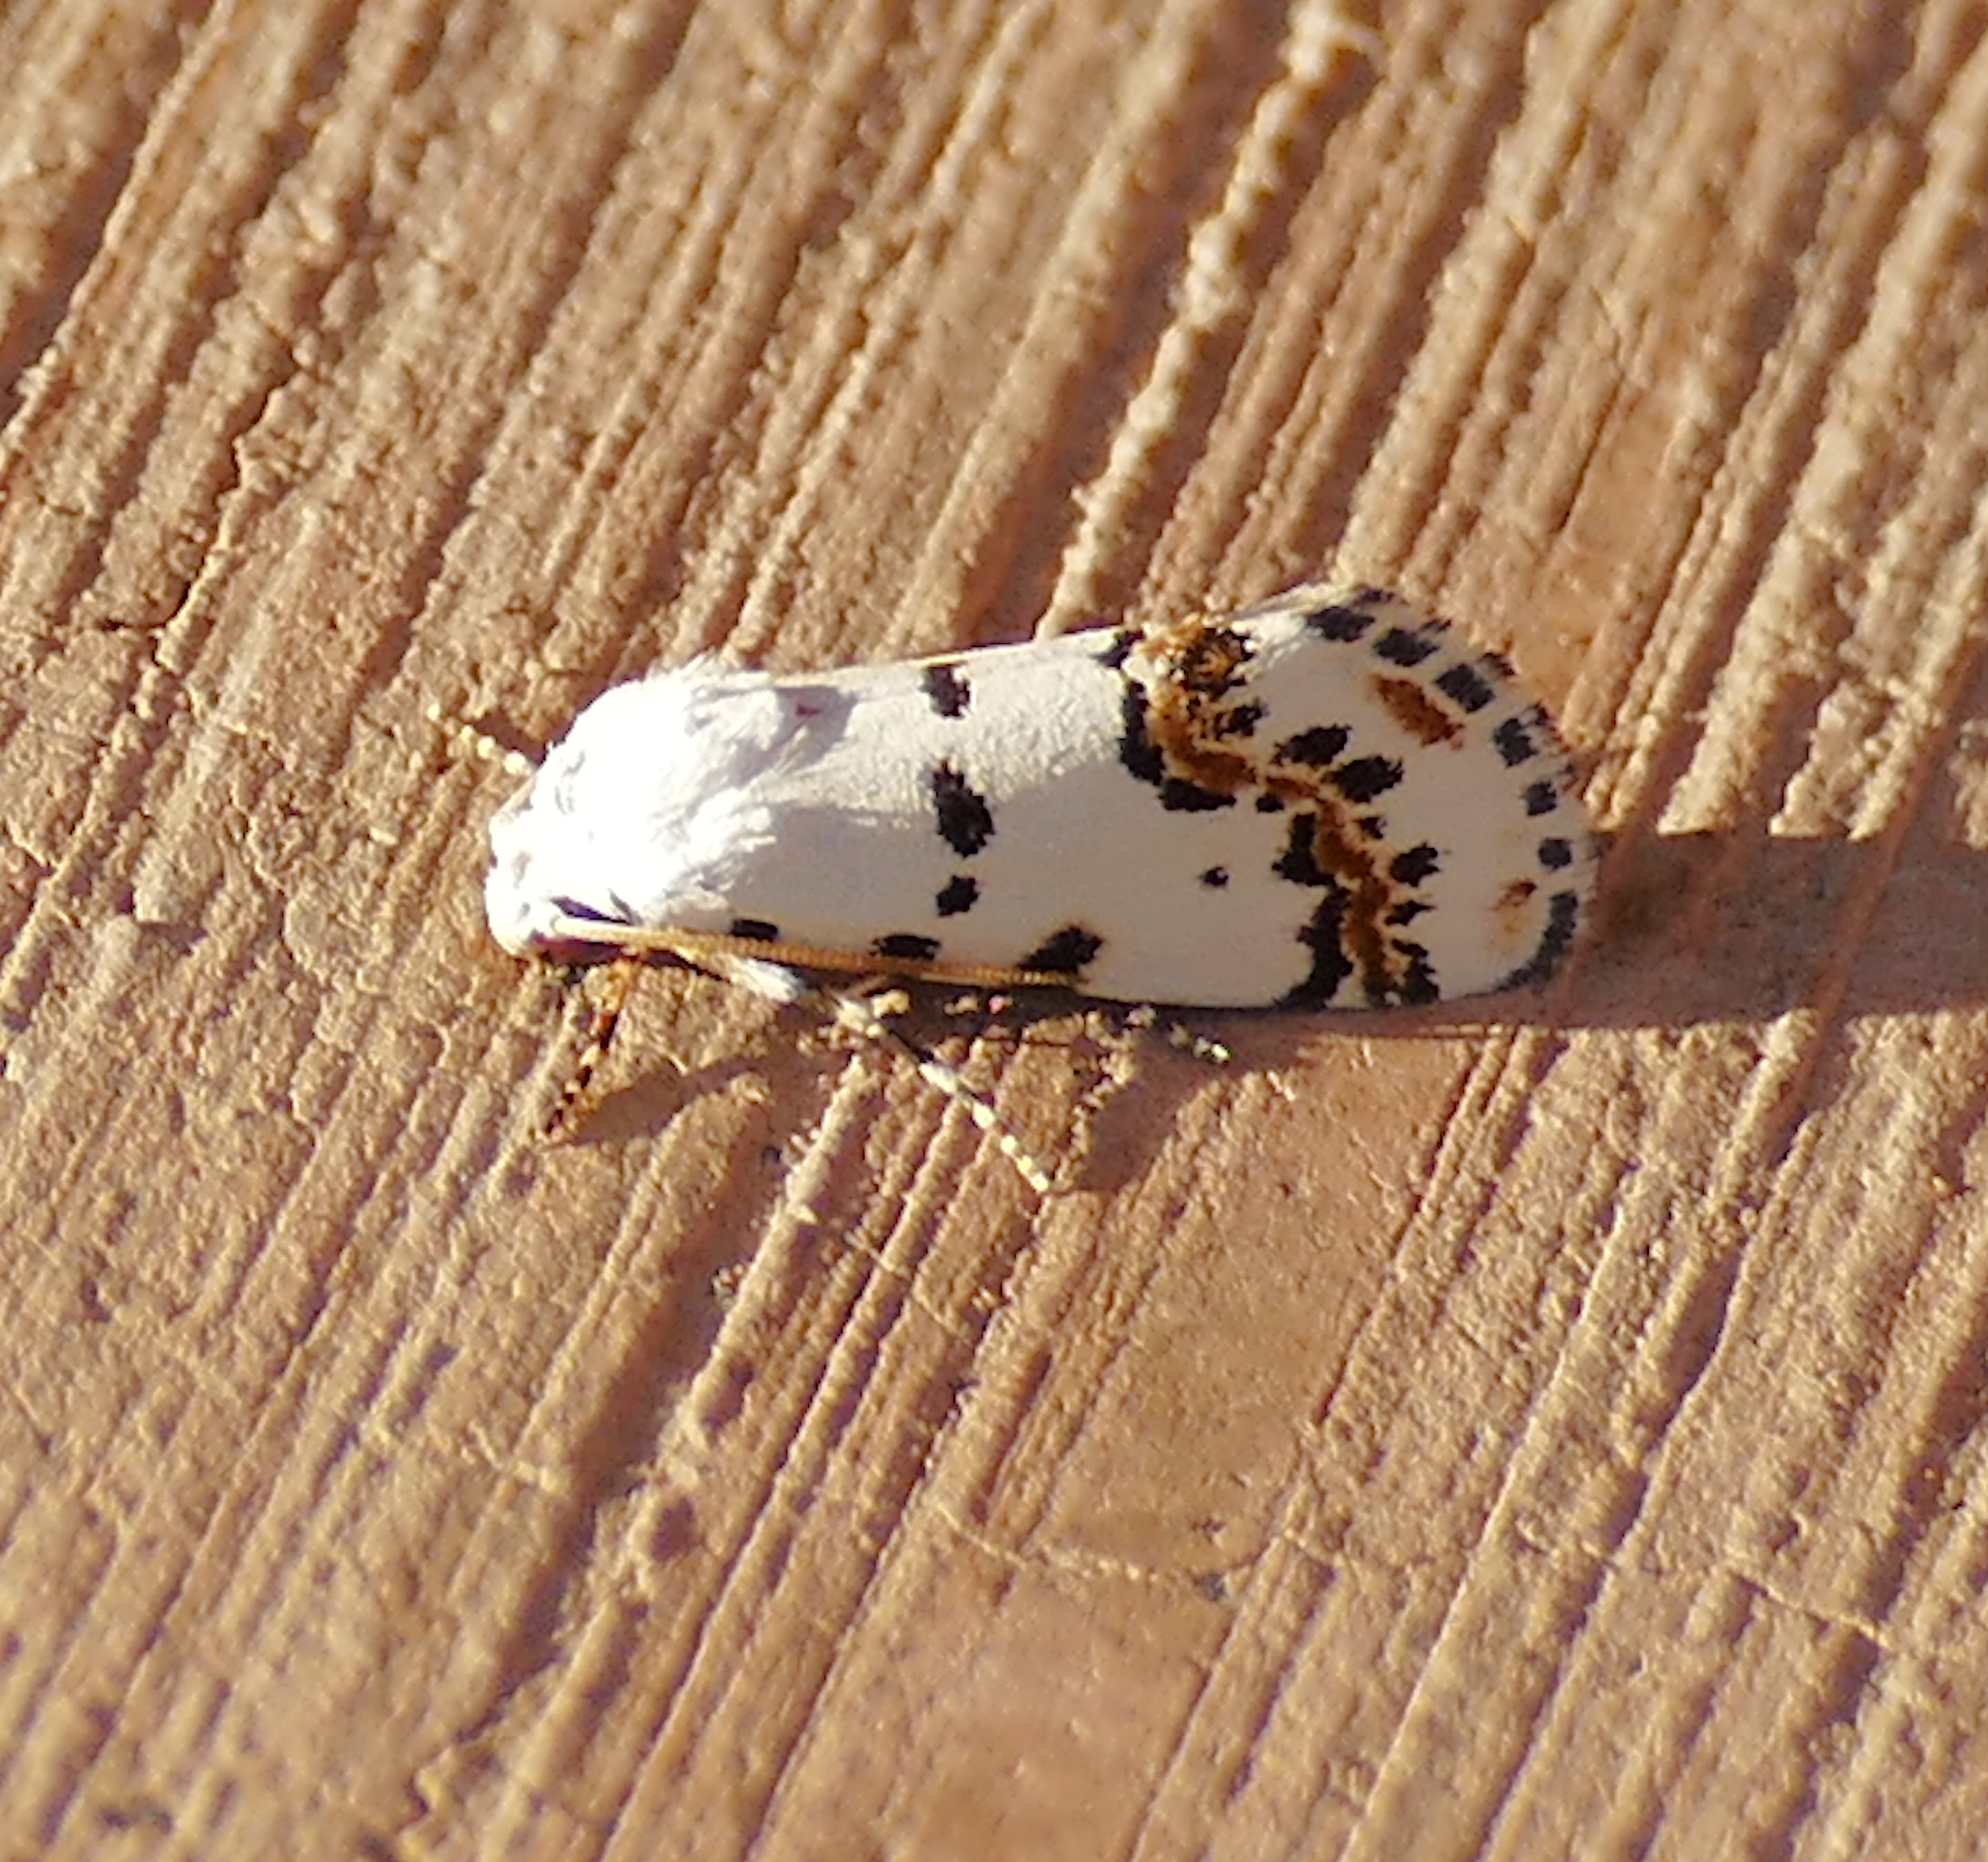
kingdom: Animalia
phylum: Arthropoda
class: Insecta
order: Lepidoptera
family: Noctuidae
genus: Grotella
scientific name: Grotella tricolor
